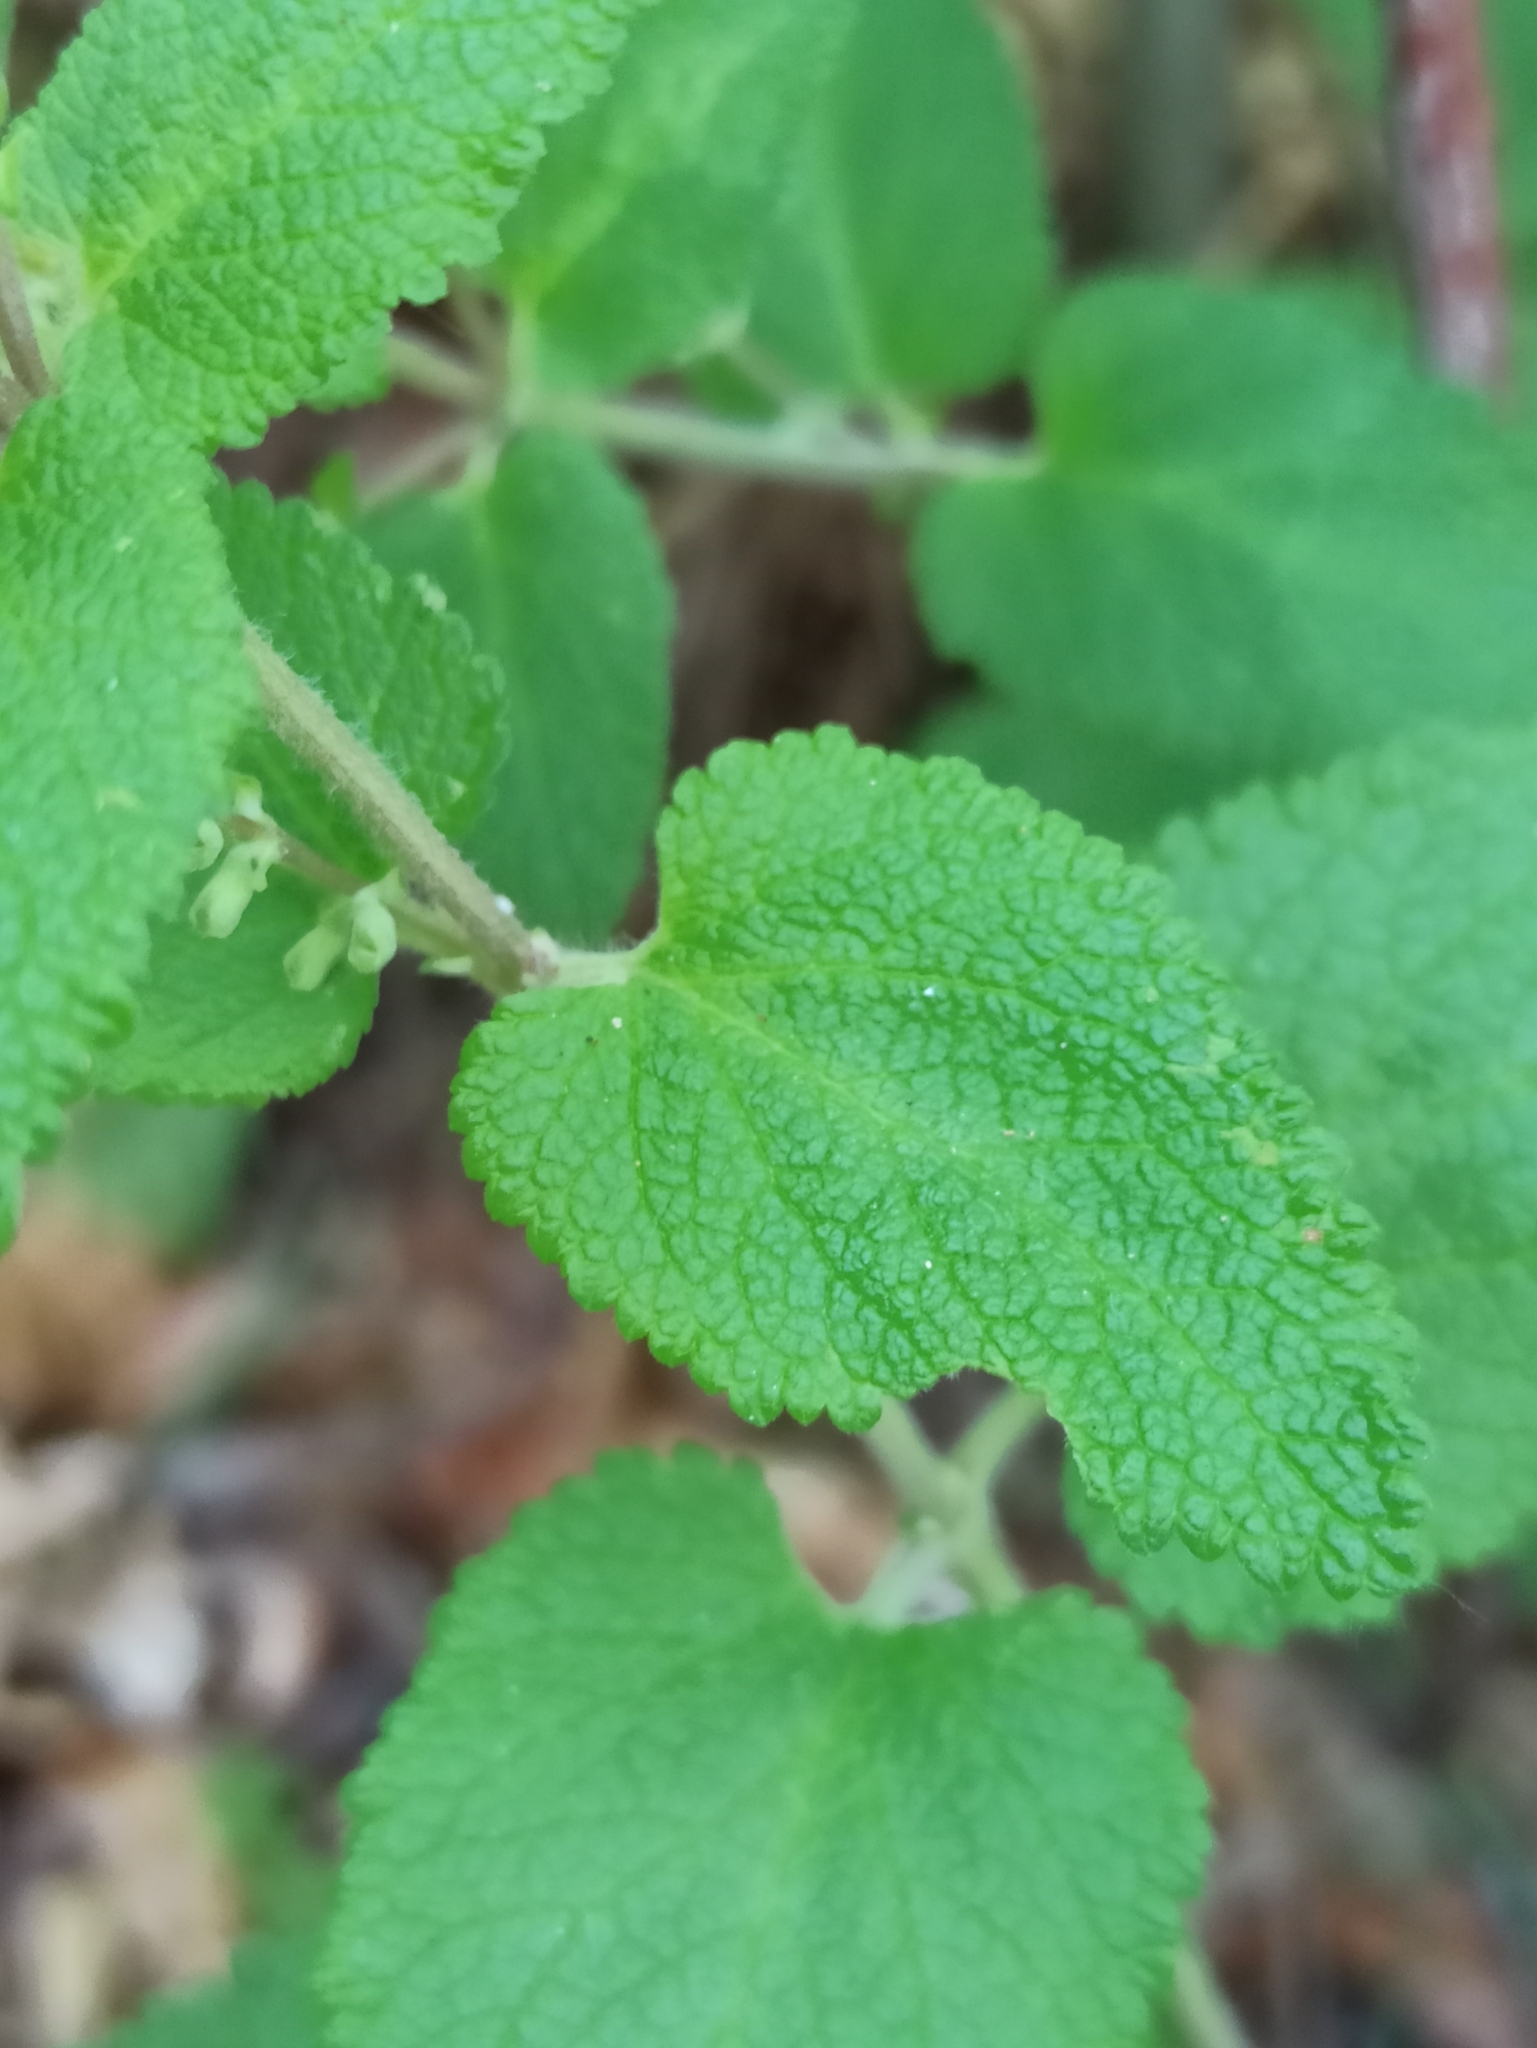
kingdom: Plantae
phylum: Tracheophyta
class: Magnoliopsida
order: Lamiales
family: Lamiaceae
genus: Teucrium
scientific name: Teucrium scorodonia
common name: Woodland germander
